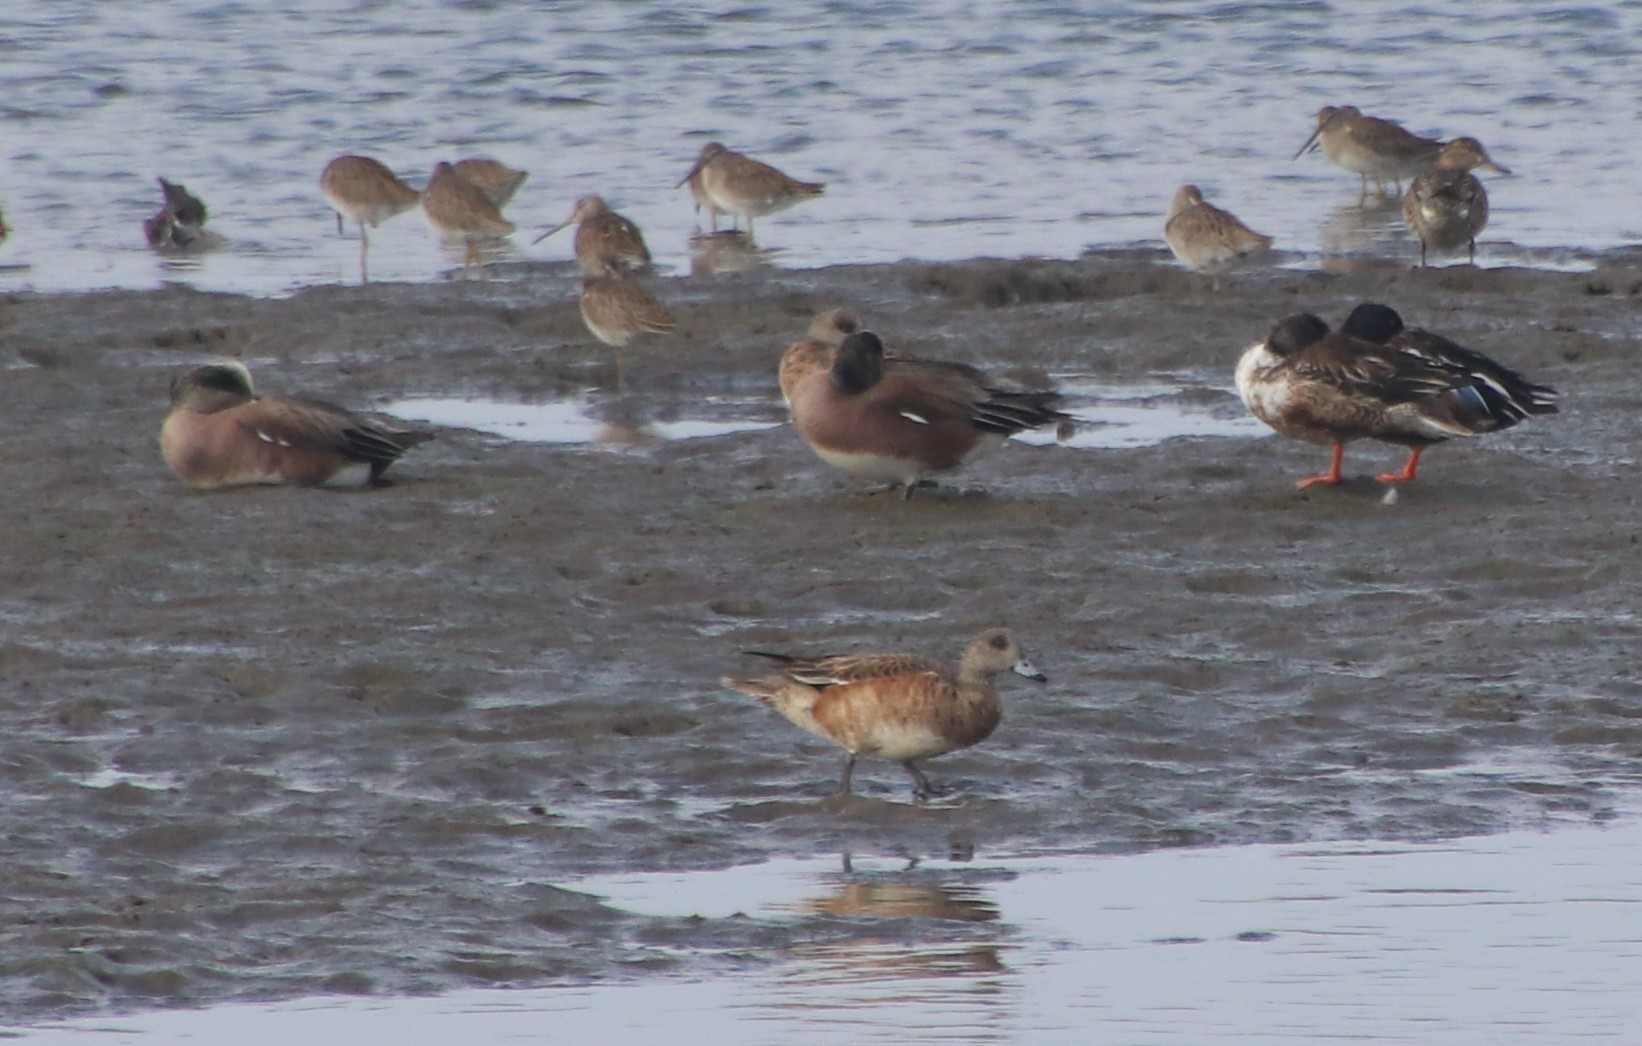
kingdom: Animalia
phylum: Chordata
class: Aves
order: Anseriformes
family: Anatidae
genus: Mareca
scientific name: Mareca americana
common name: American wigeon
